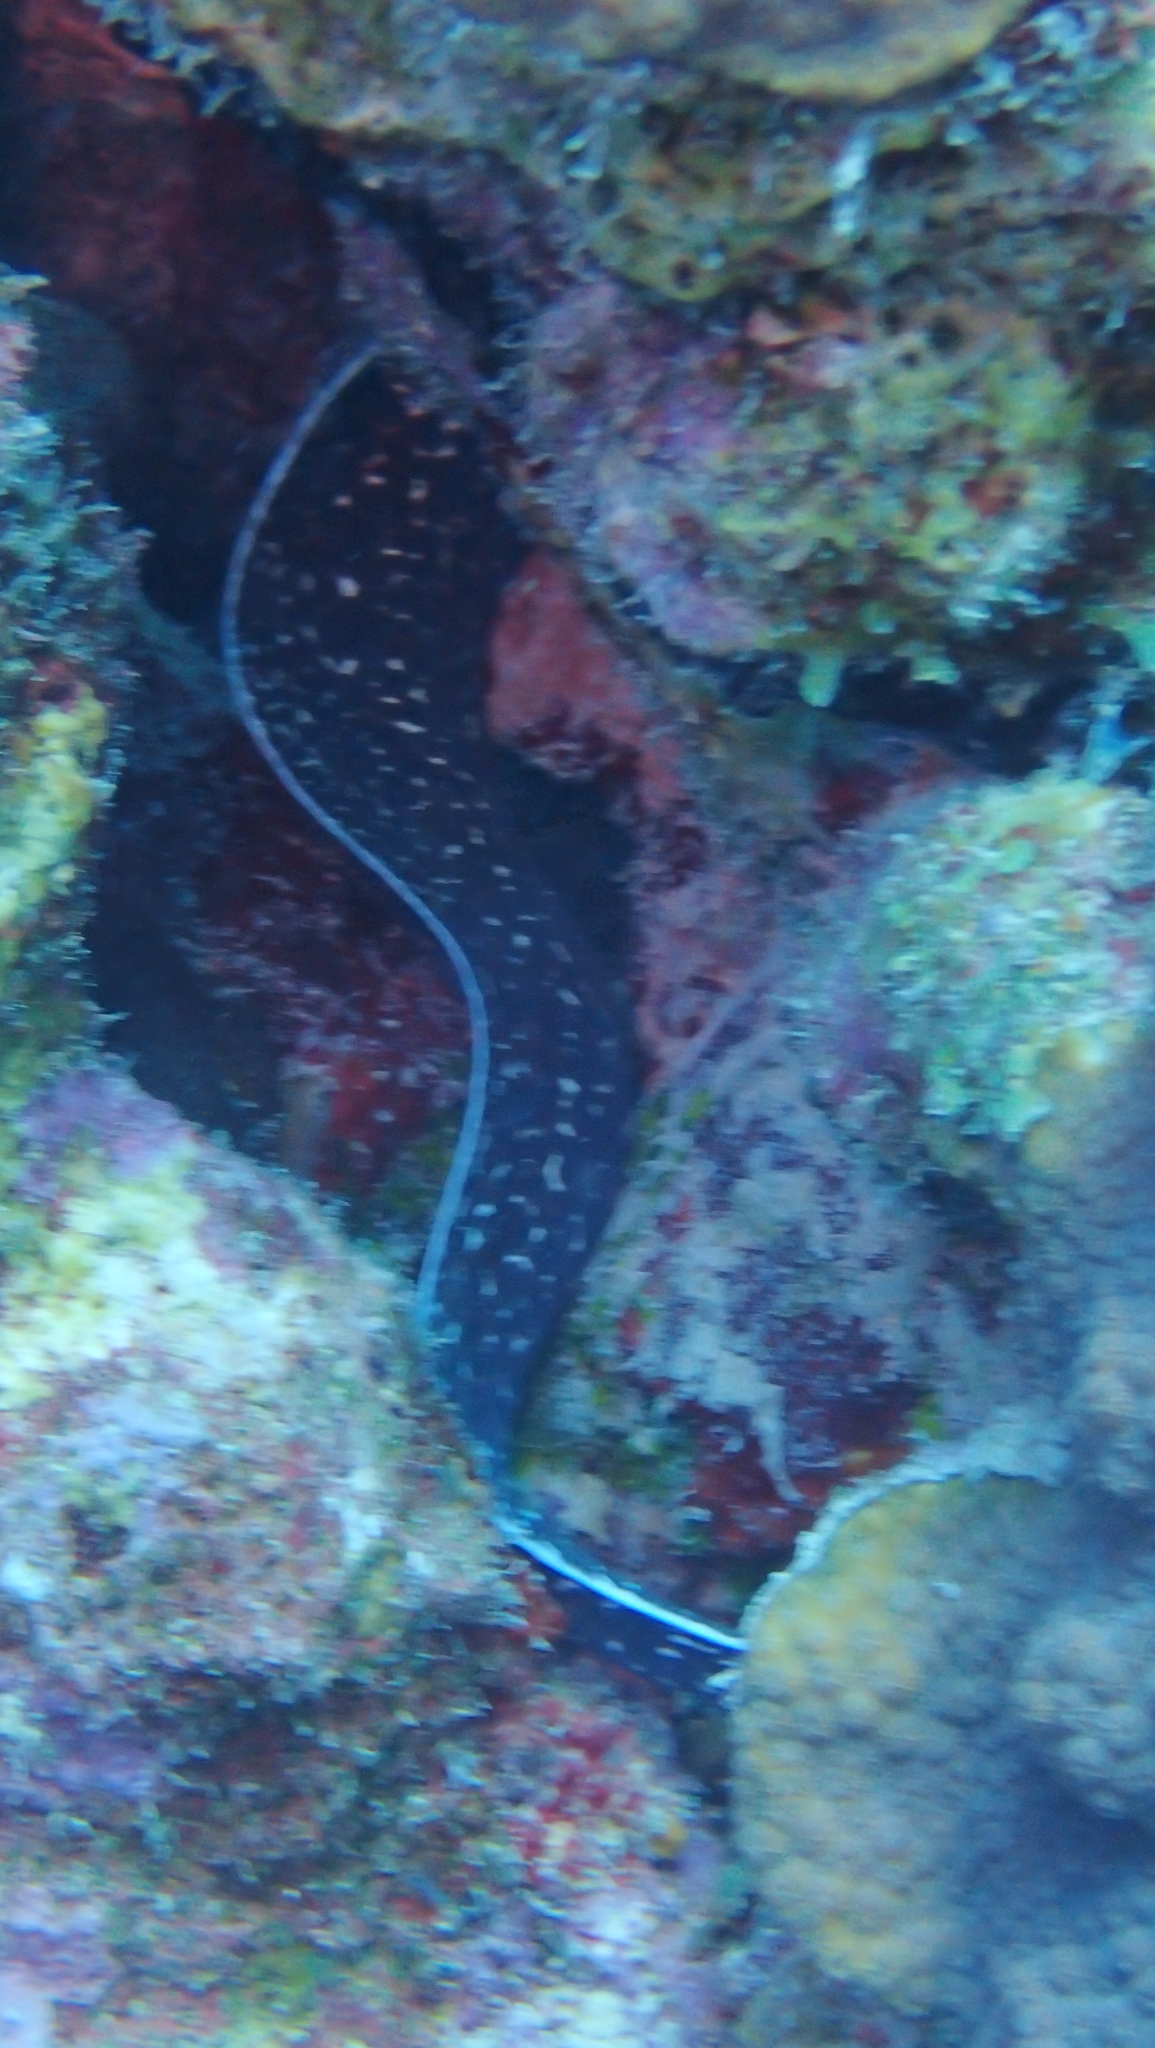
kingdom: Animalia
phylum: Chordata
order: Anguilliformes
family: Muraenidae
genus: Gymnothorax
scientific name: Gymnothorax moringa
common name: Spotted moray
